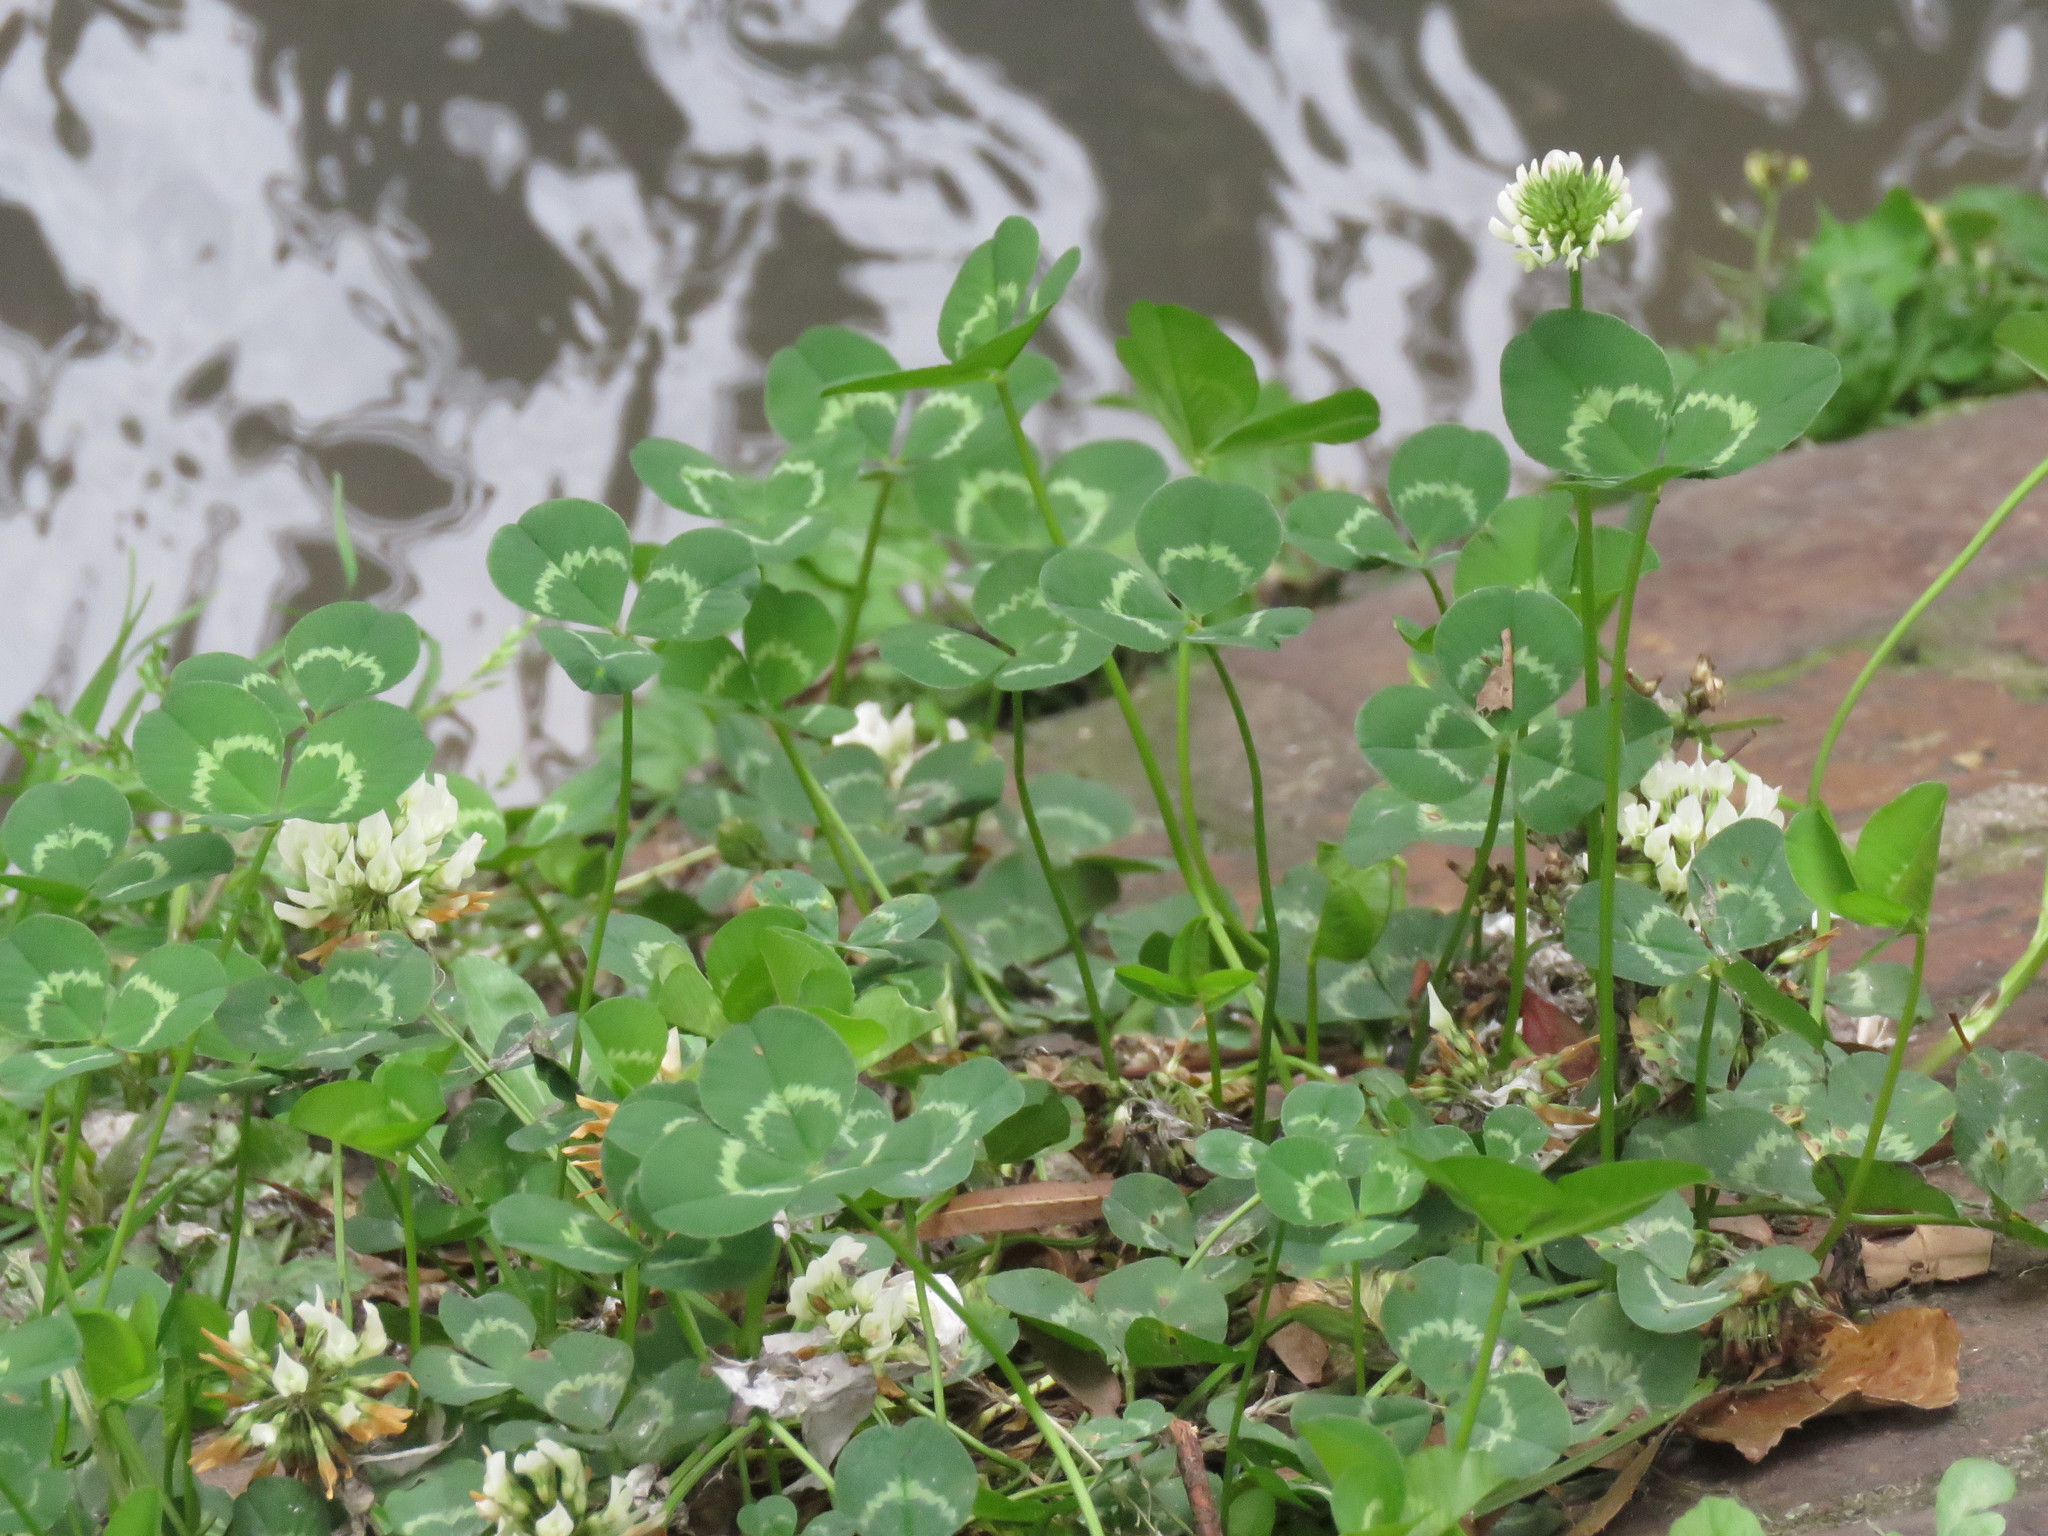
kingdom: Plantae
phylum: Tracheophyta
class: Magnoliopsida
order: Fabales
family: Fabaceae
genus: Trifolium
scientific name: Trifolium repens
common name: White clover
